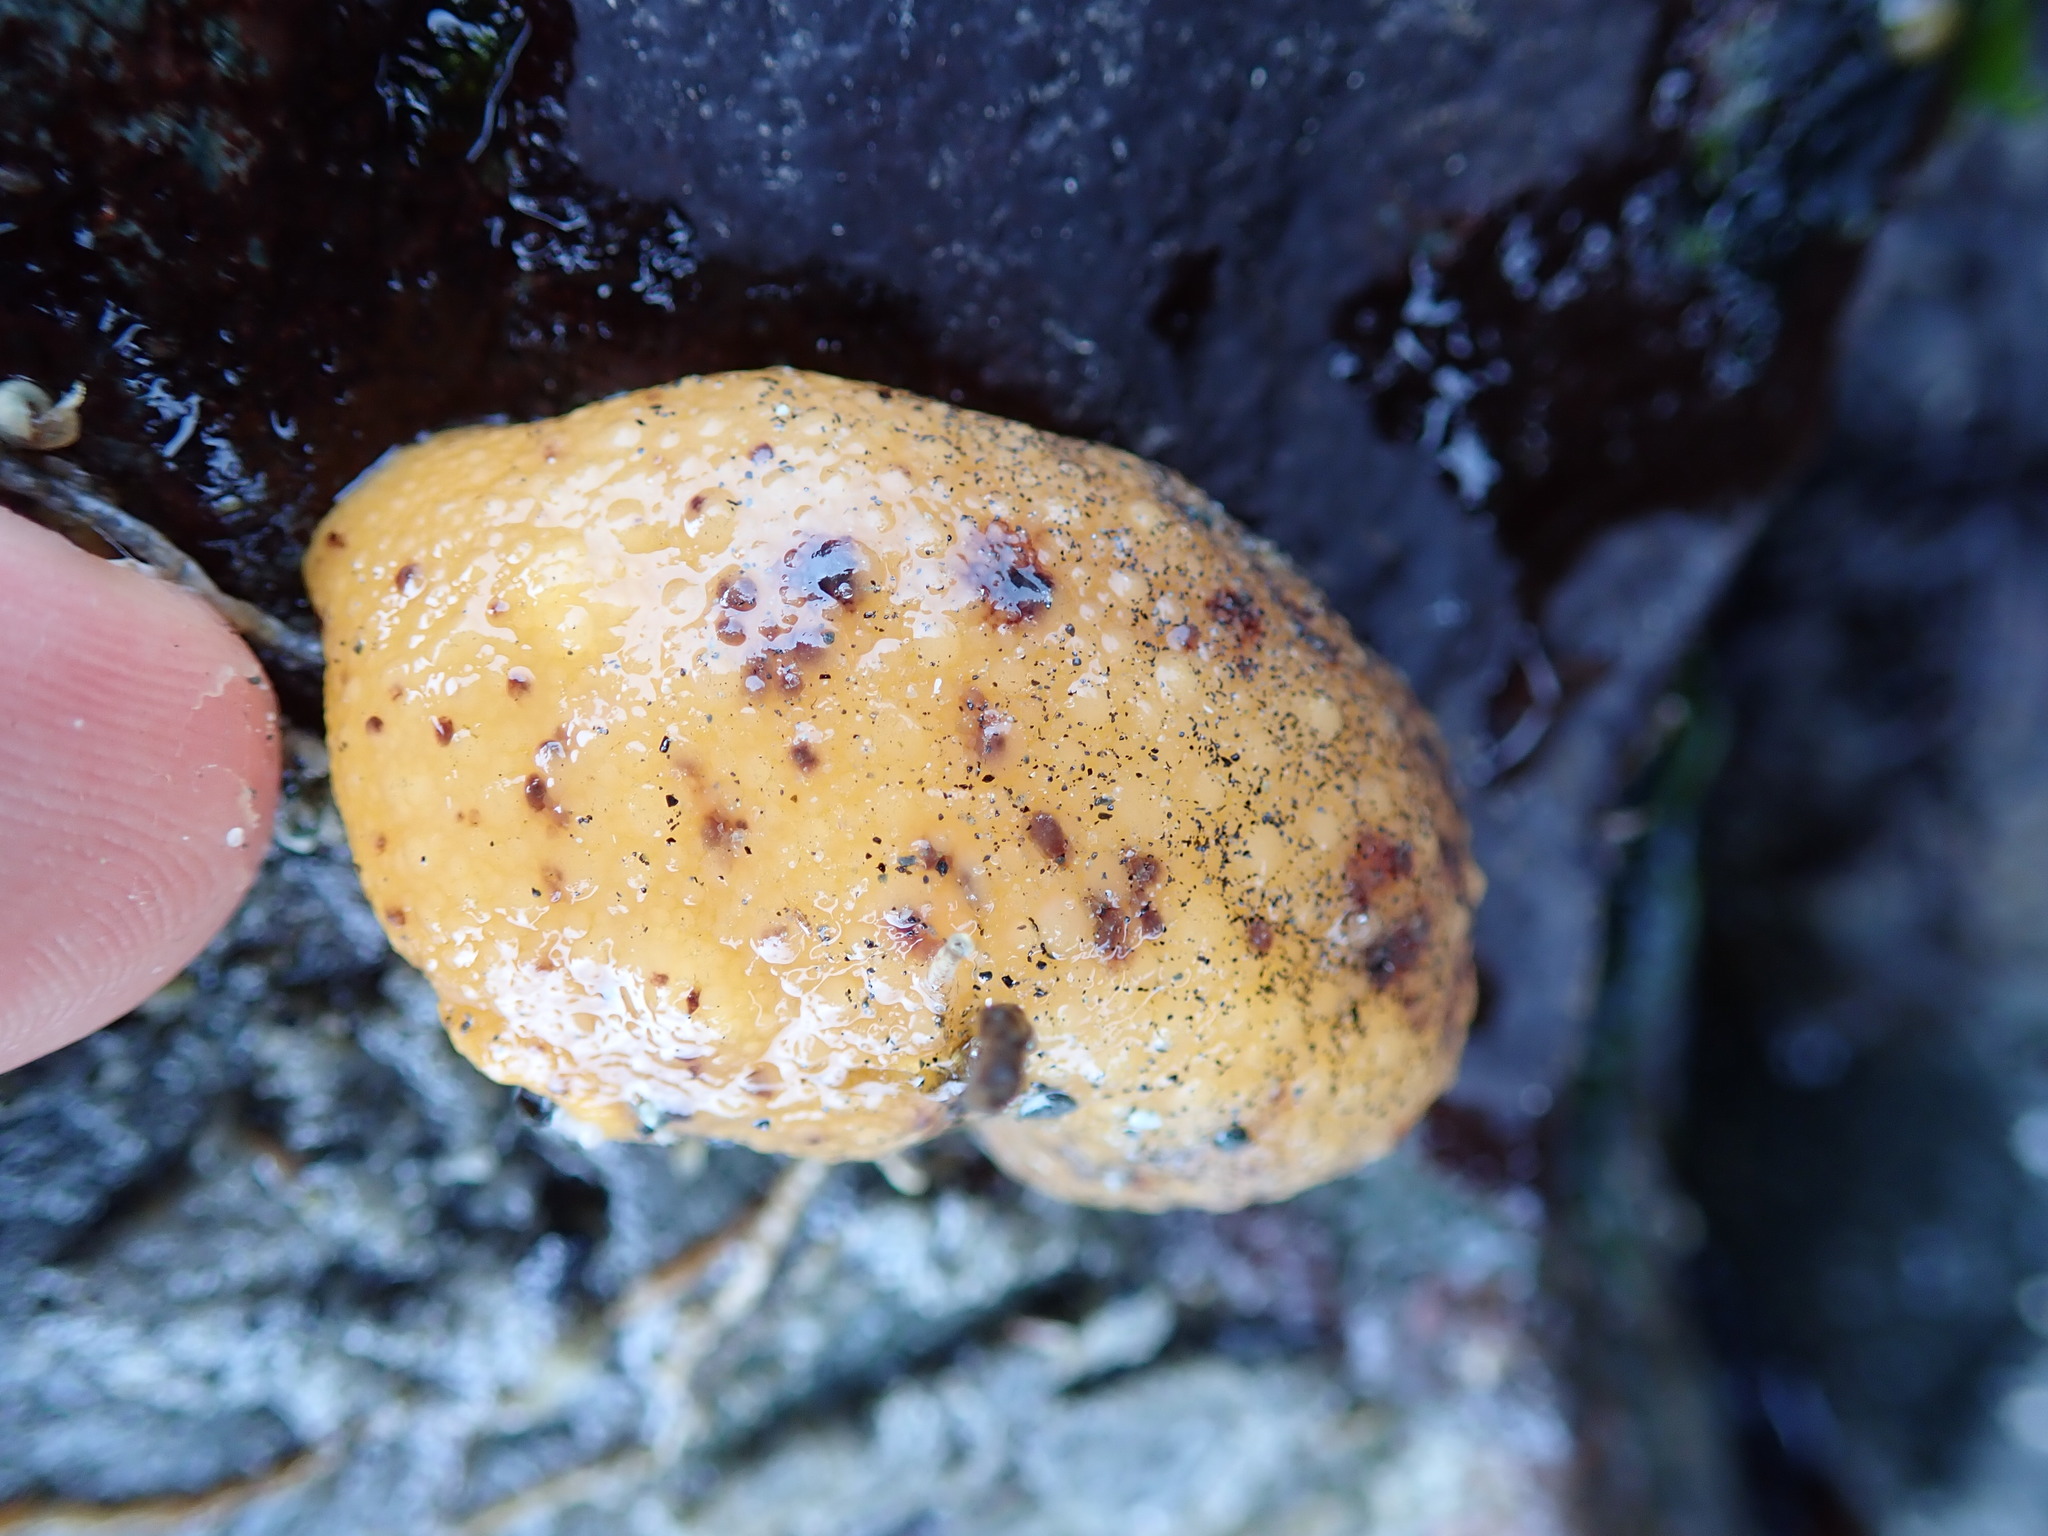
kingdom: Animalia
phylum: Mollusca
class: Gastropoda
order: Nudibranchia
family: Dorididae
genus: Doris
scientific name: Doris montereyensis
